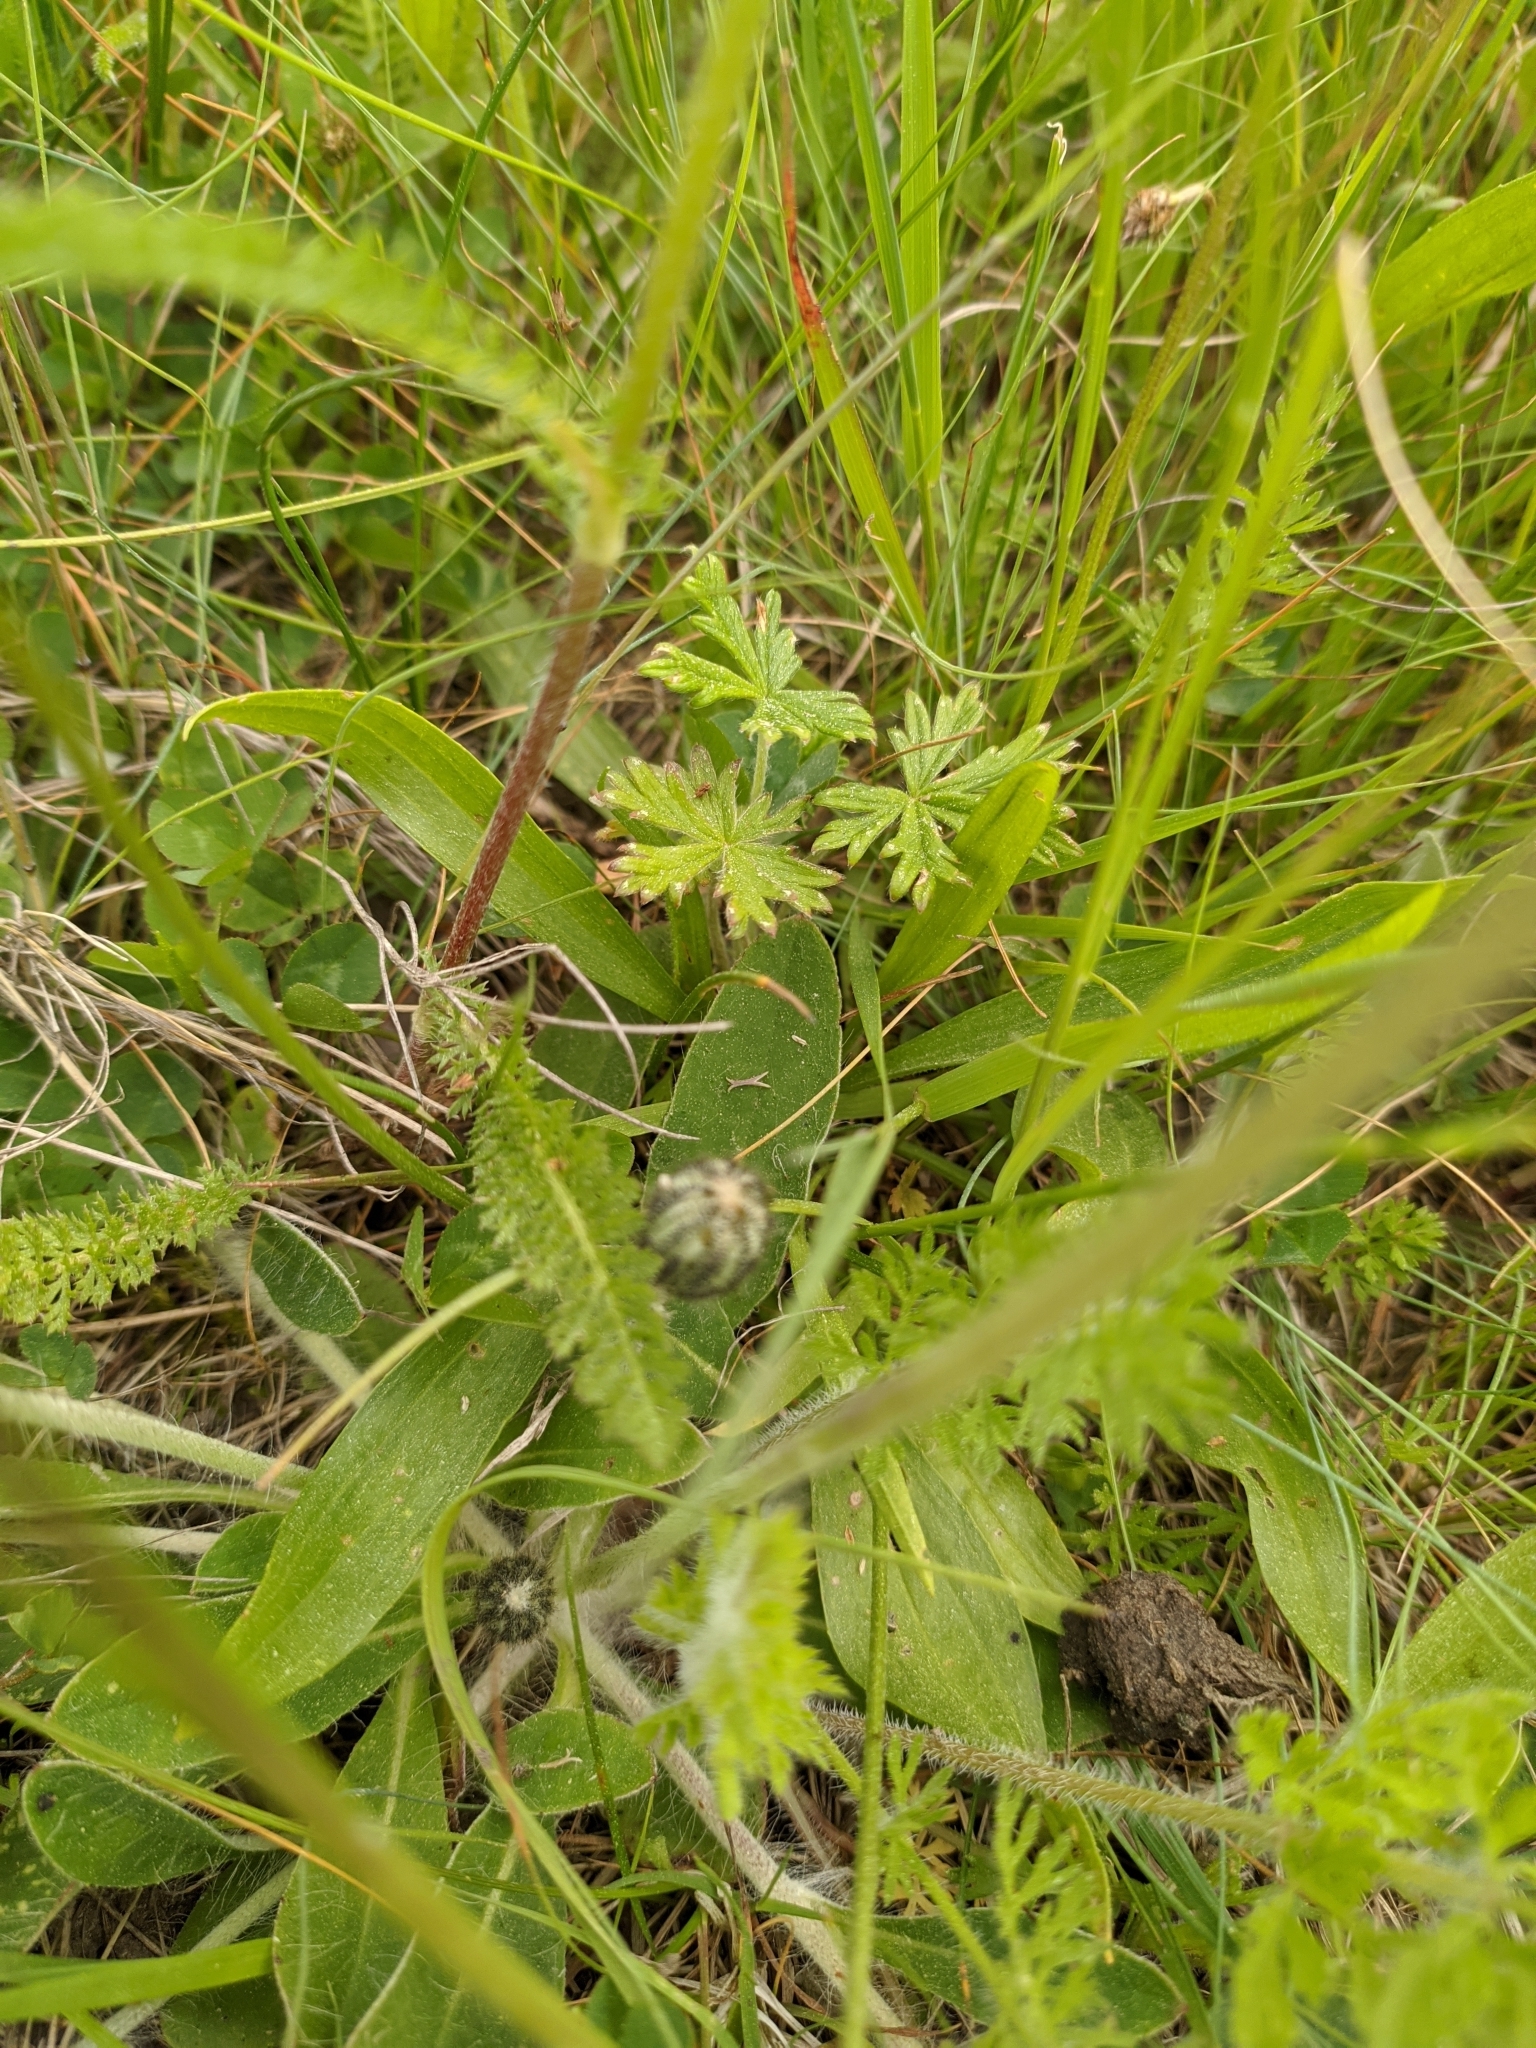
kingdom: Plantae
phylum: Tracheophyta
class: Magnoliopsida
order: Asterales
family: Asteraceae
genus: Pilosella
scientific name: Pilosella officinarum
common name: Mouse-ear hawkweed
